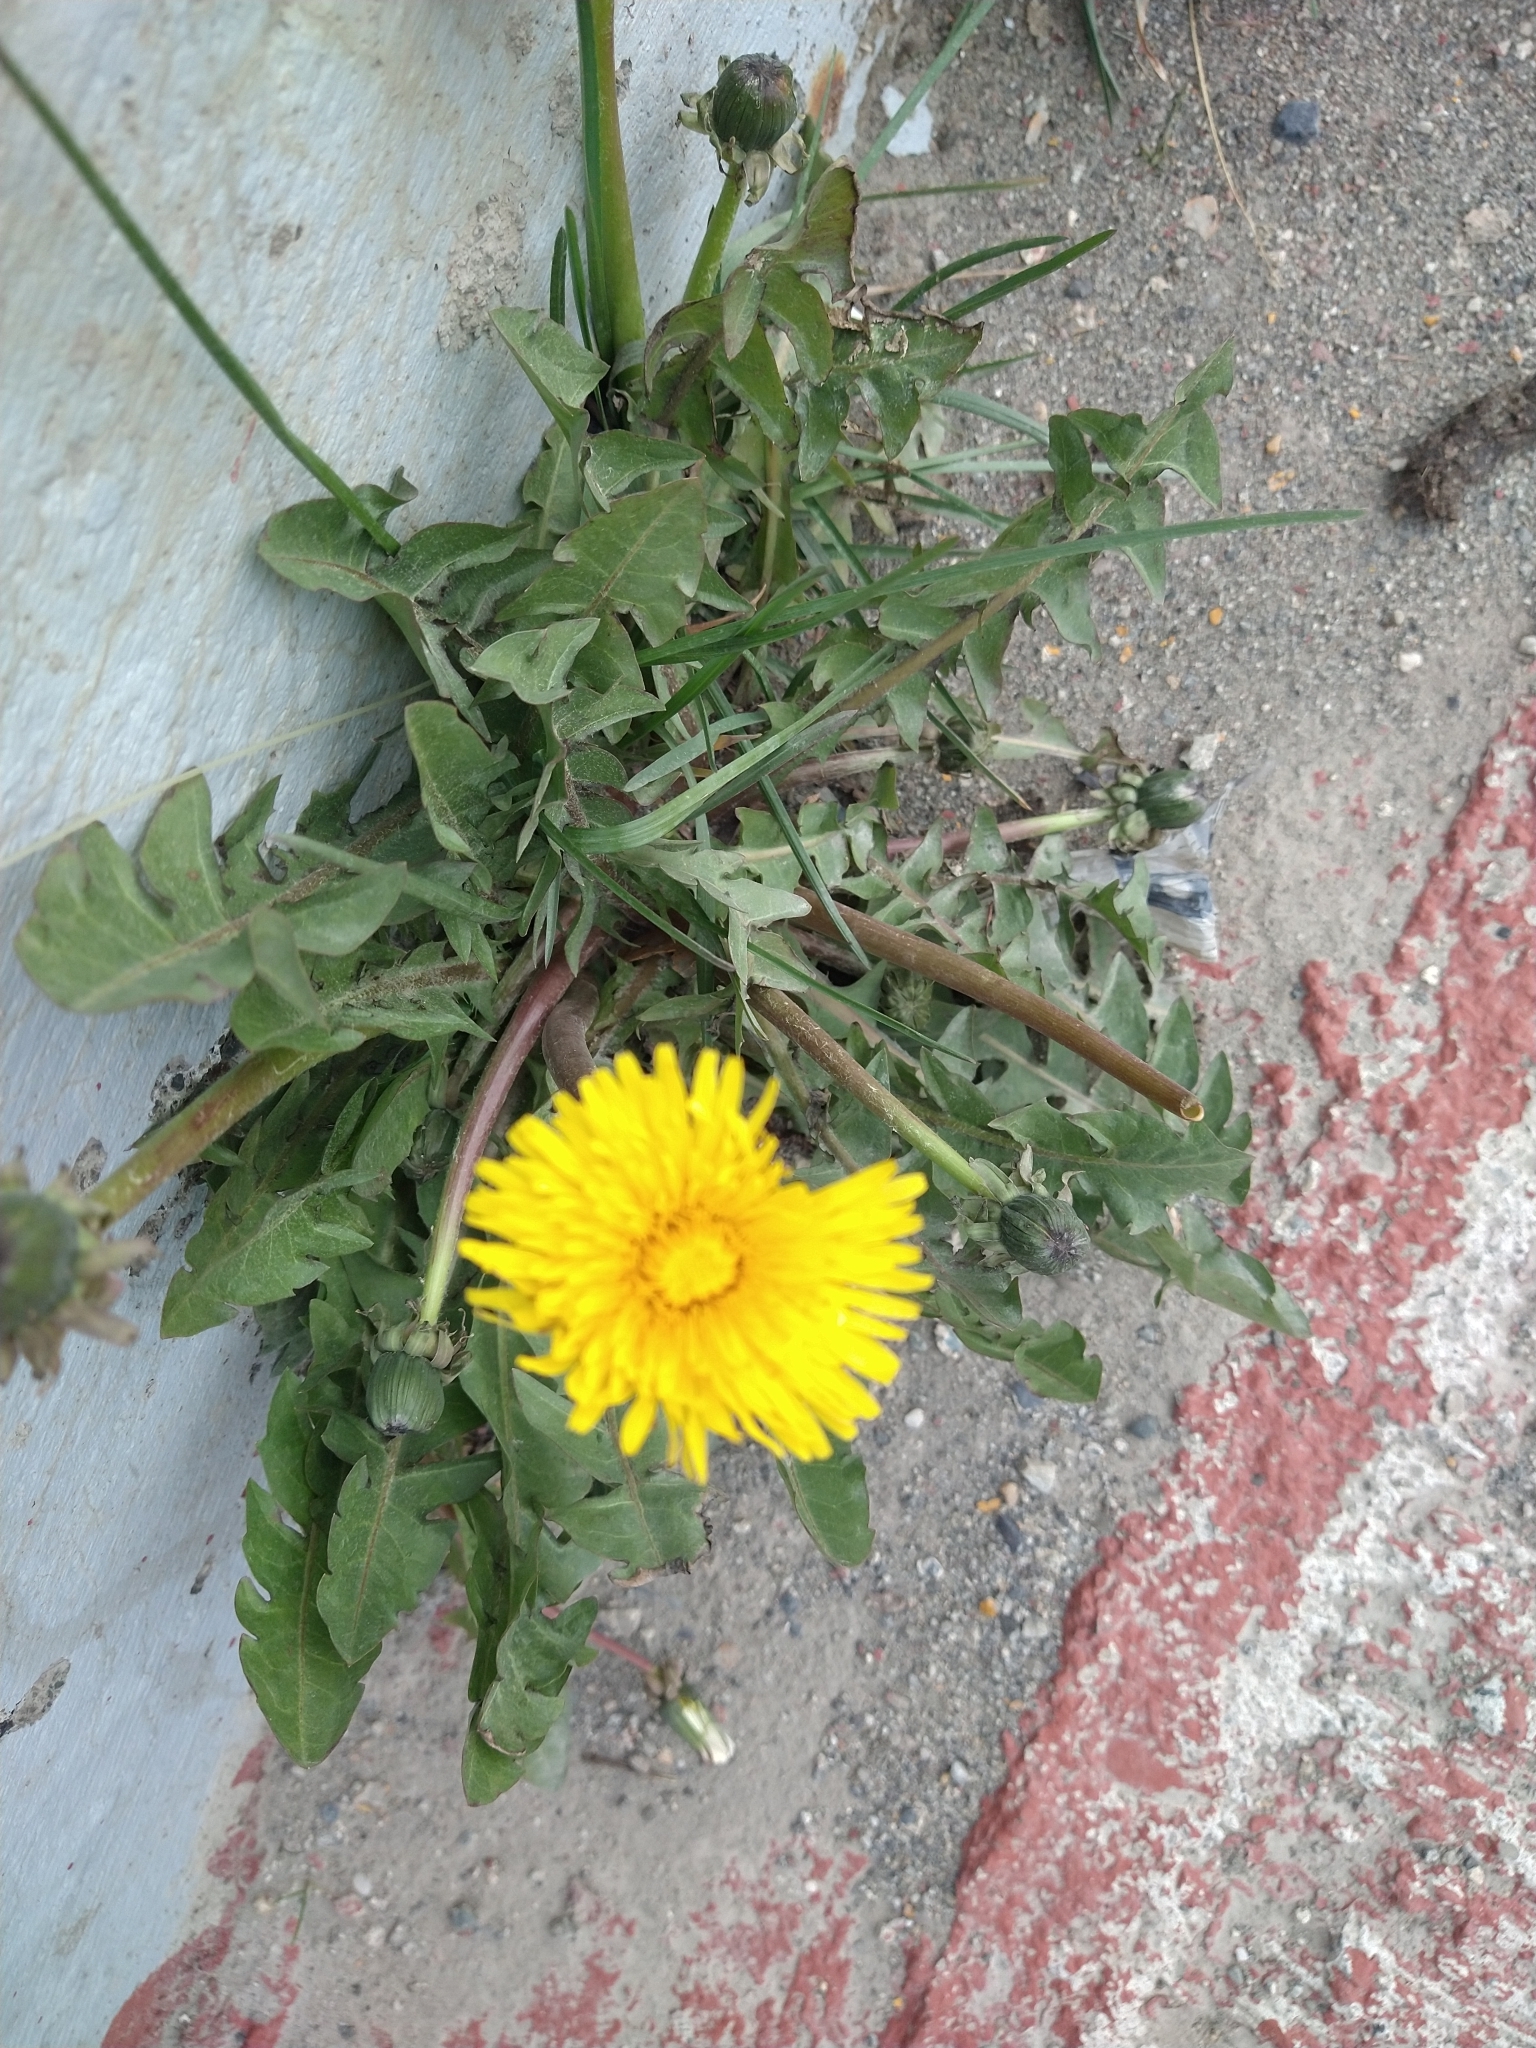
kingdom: Plantae
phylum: Tracheophyta
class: Magnoliopsida
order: Asterales
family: Asteraceae
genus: Taraxacum
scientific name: Taraxacum officinale
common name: Common dandelion
